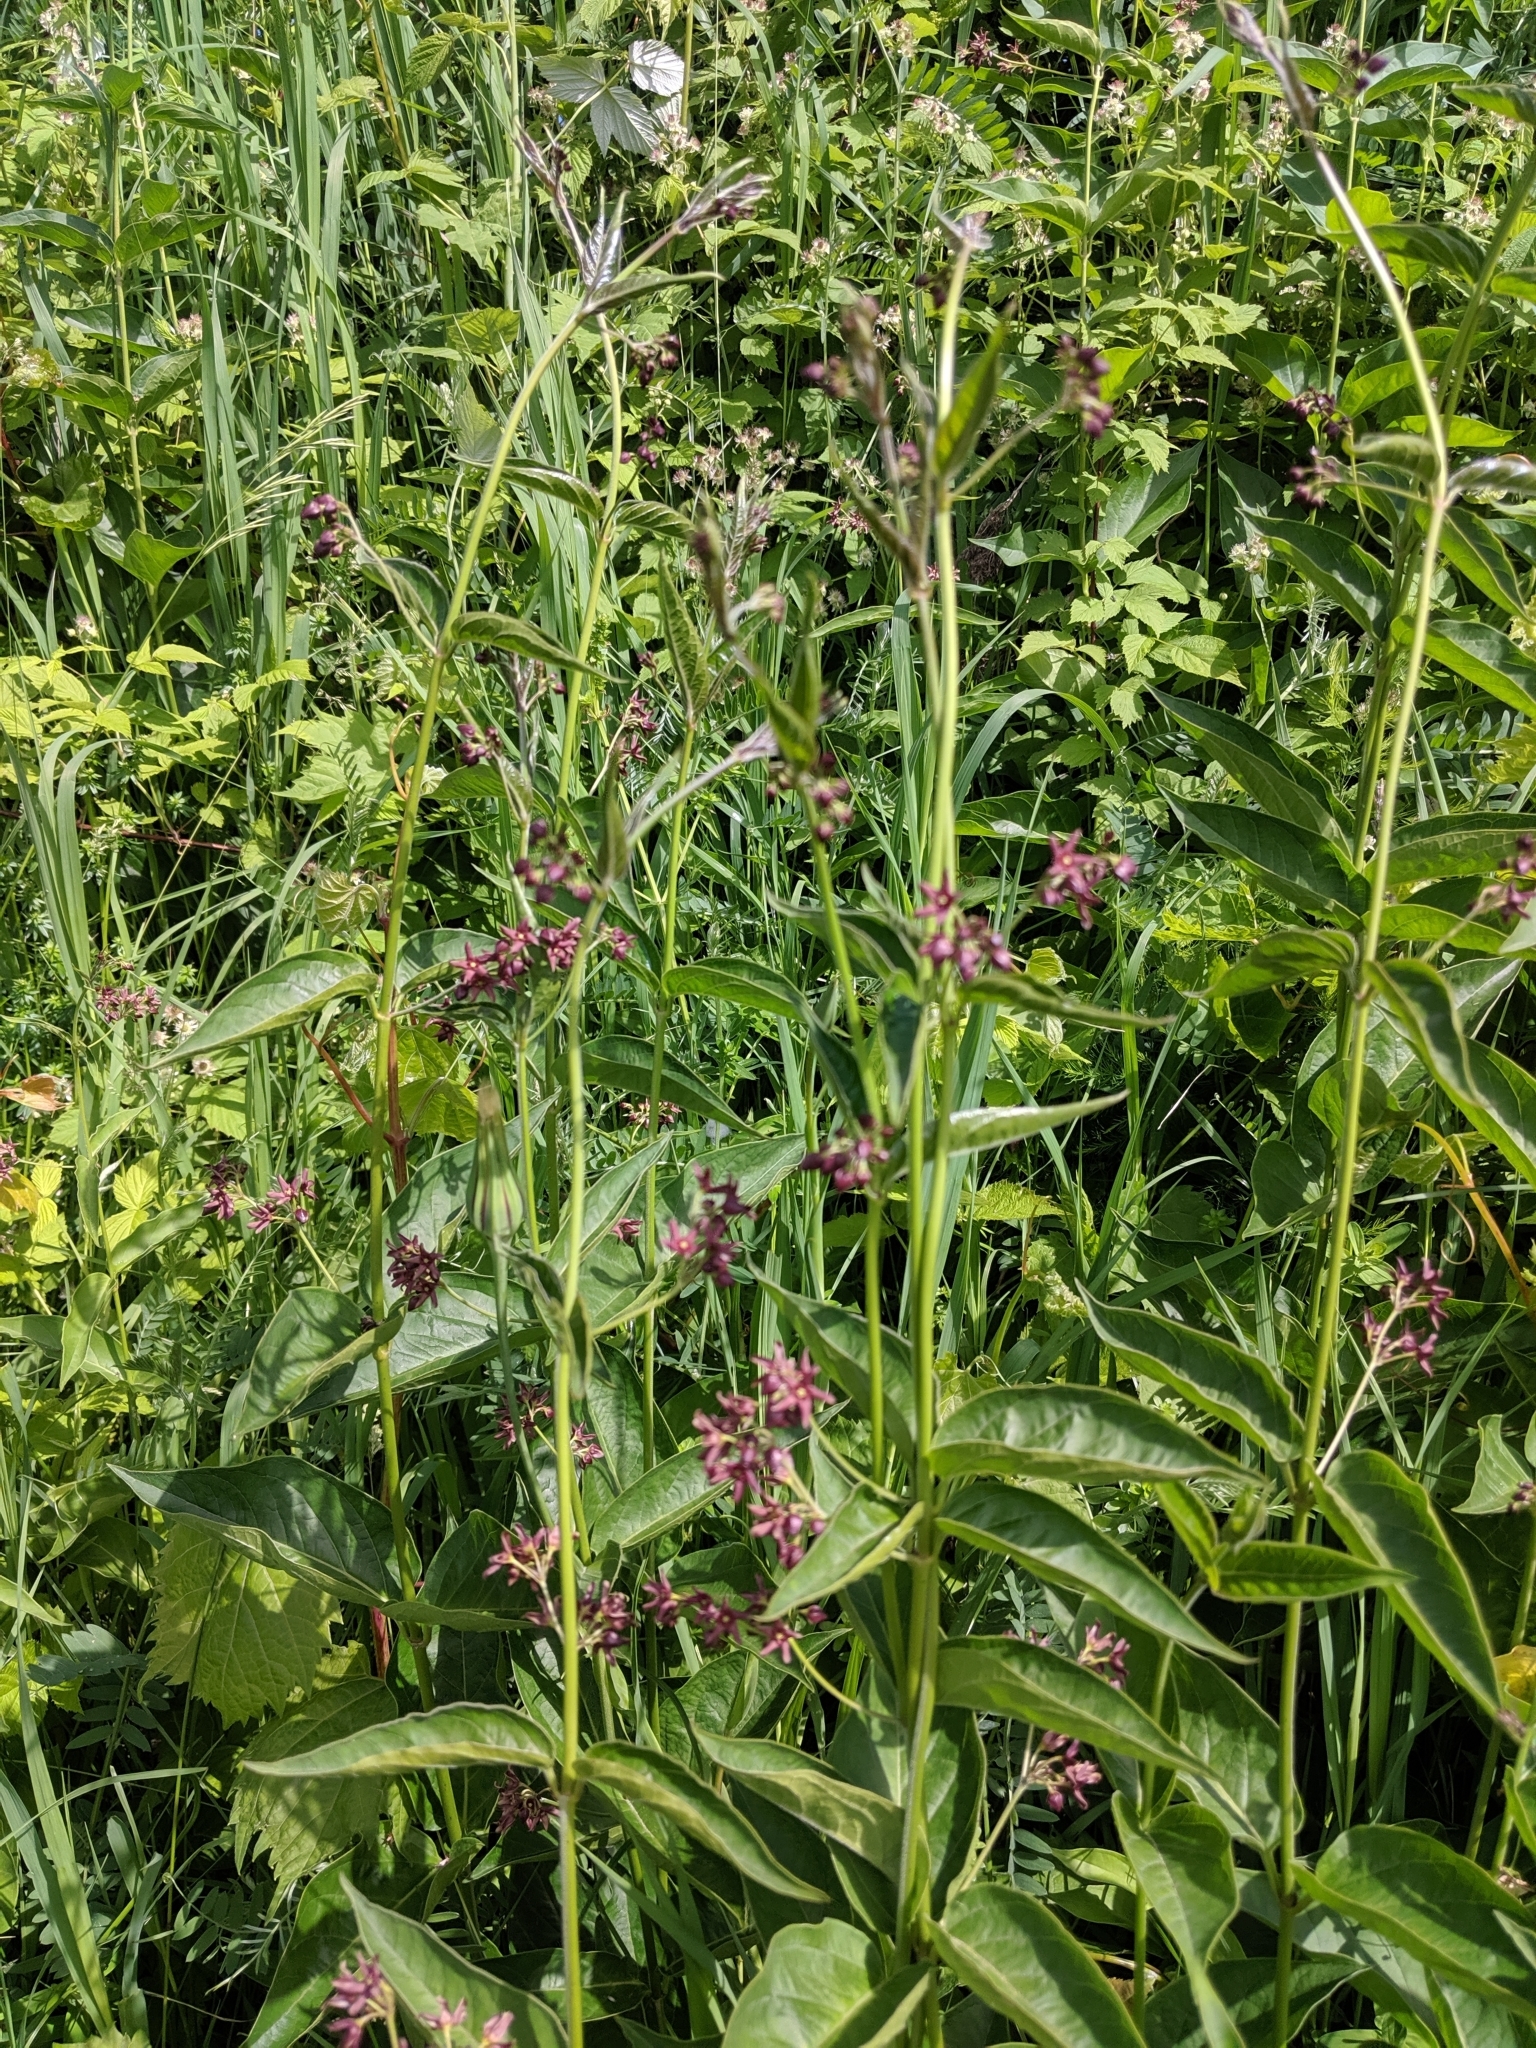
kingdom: Plantae
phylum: Tracheophyta
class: Magnoliopsida
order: Gentianales
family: Apocynaceae
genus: Vincetoxicum
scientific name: Vincetoxicum rossicum
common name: Dog-strangling vine
